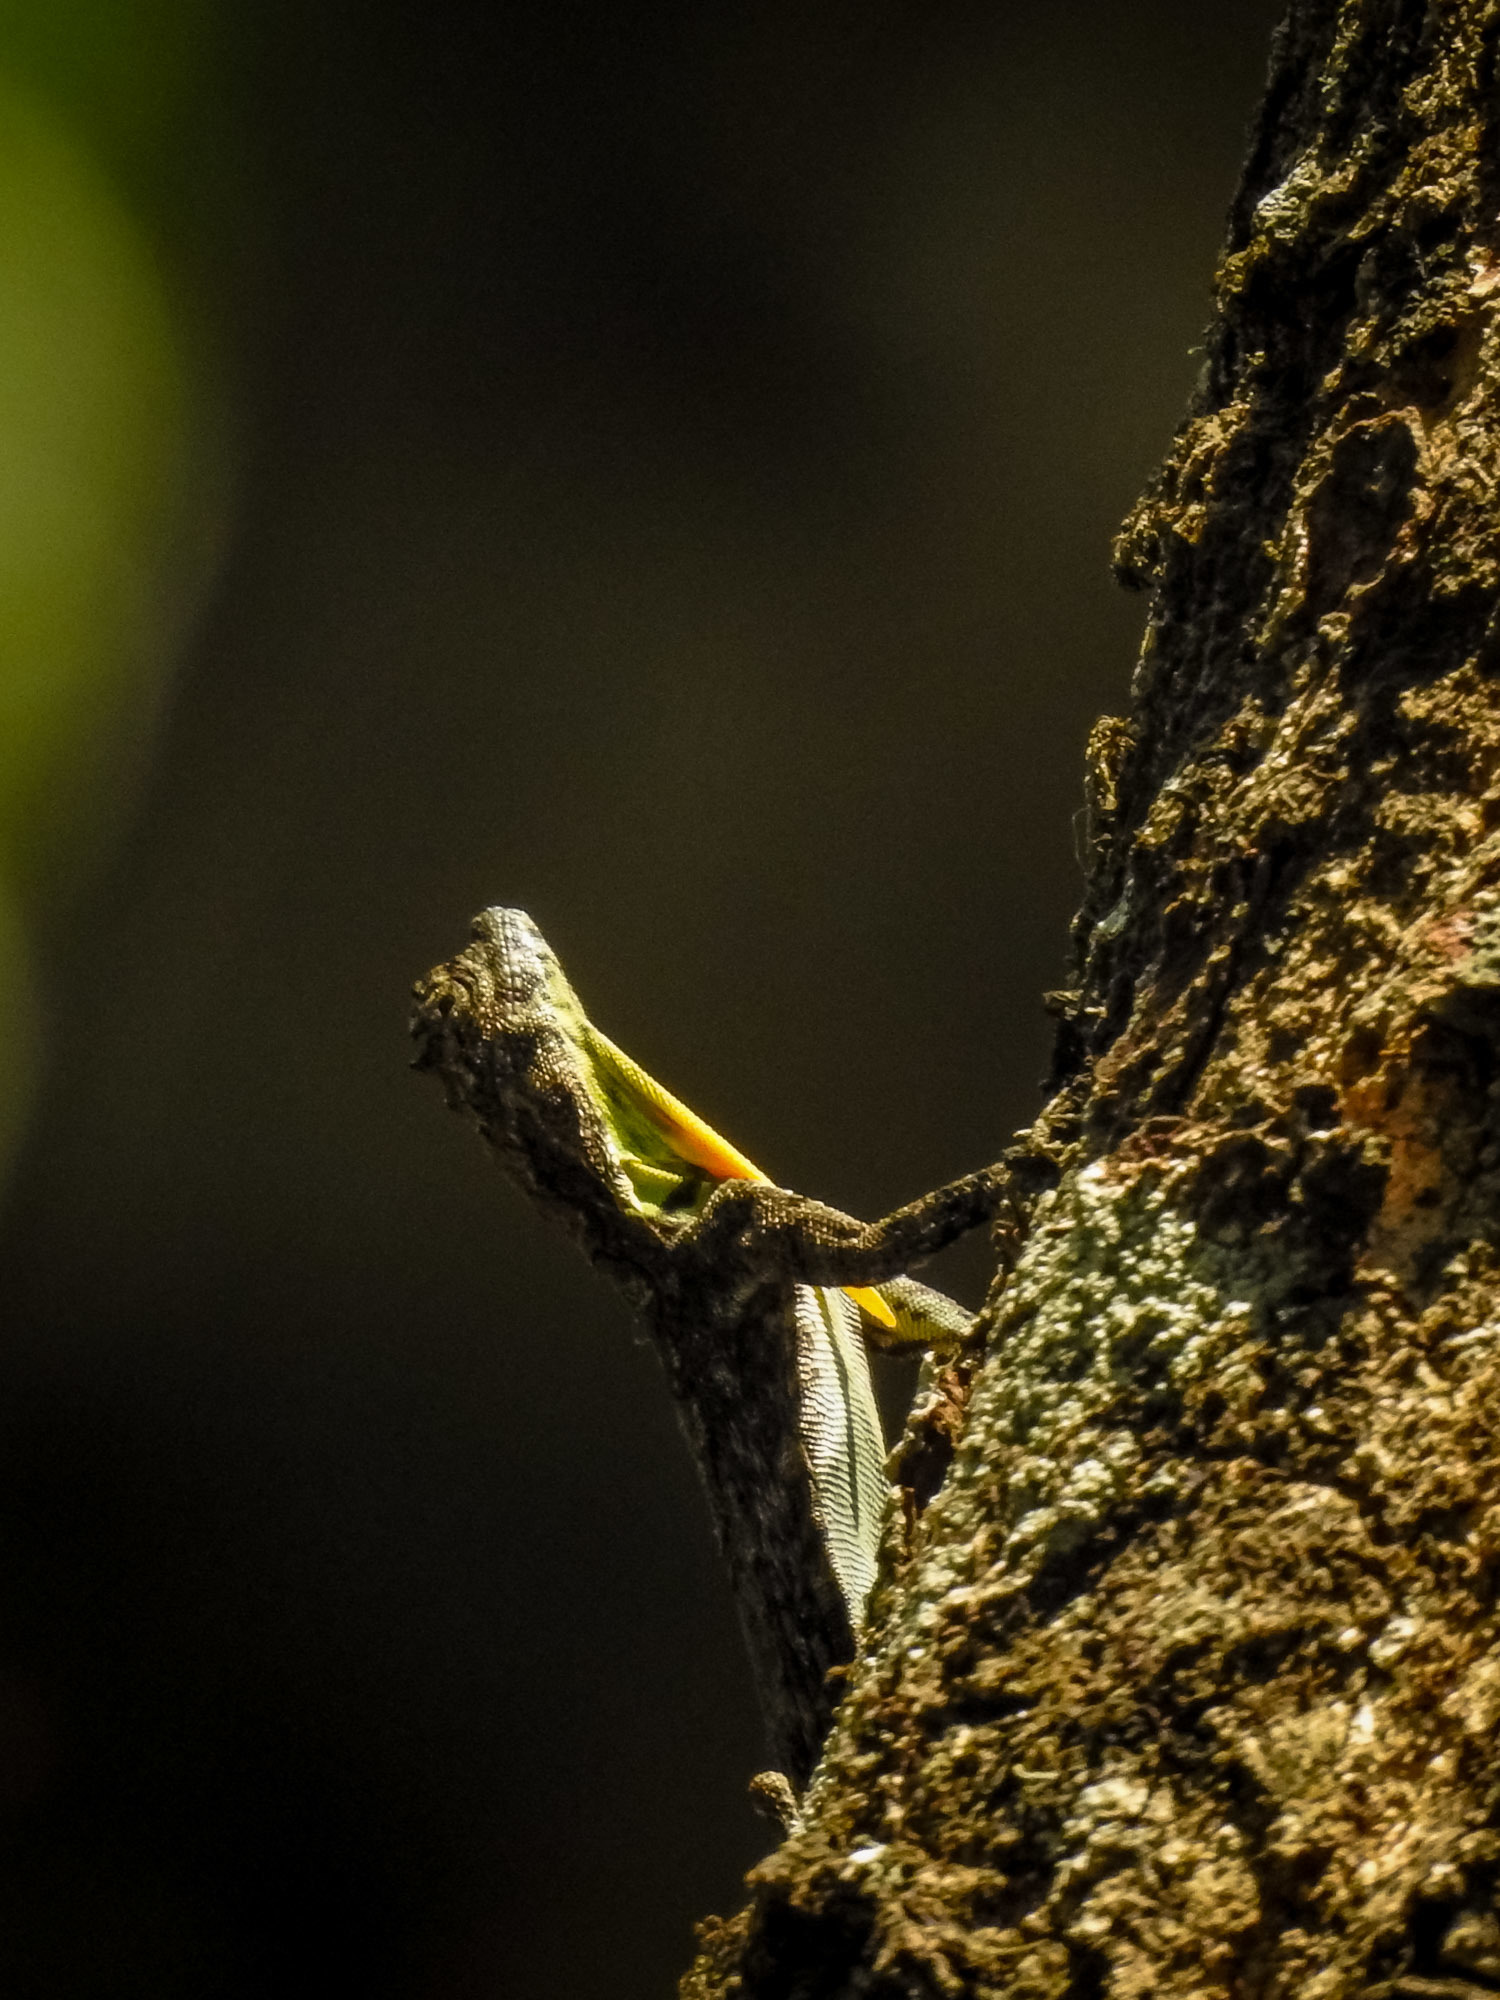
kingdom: Animalia
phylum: Chordata
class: Squamata
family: Agamidae
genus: Draco
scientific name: Draco dussumieri
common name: Southern flying lizard
